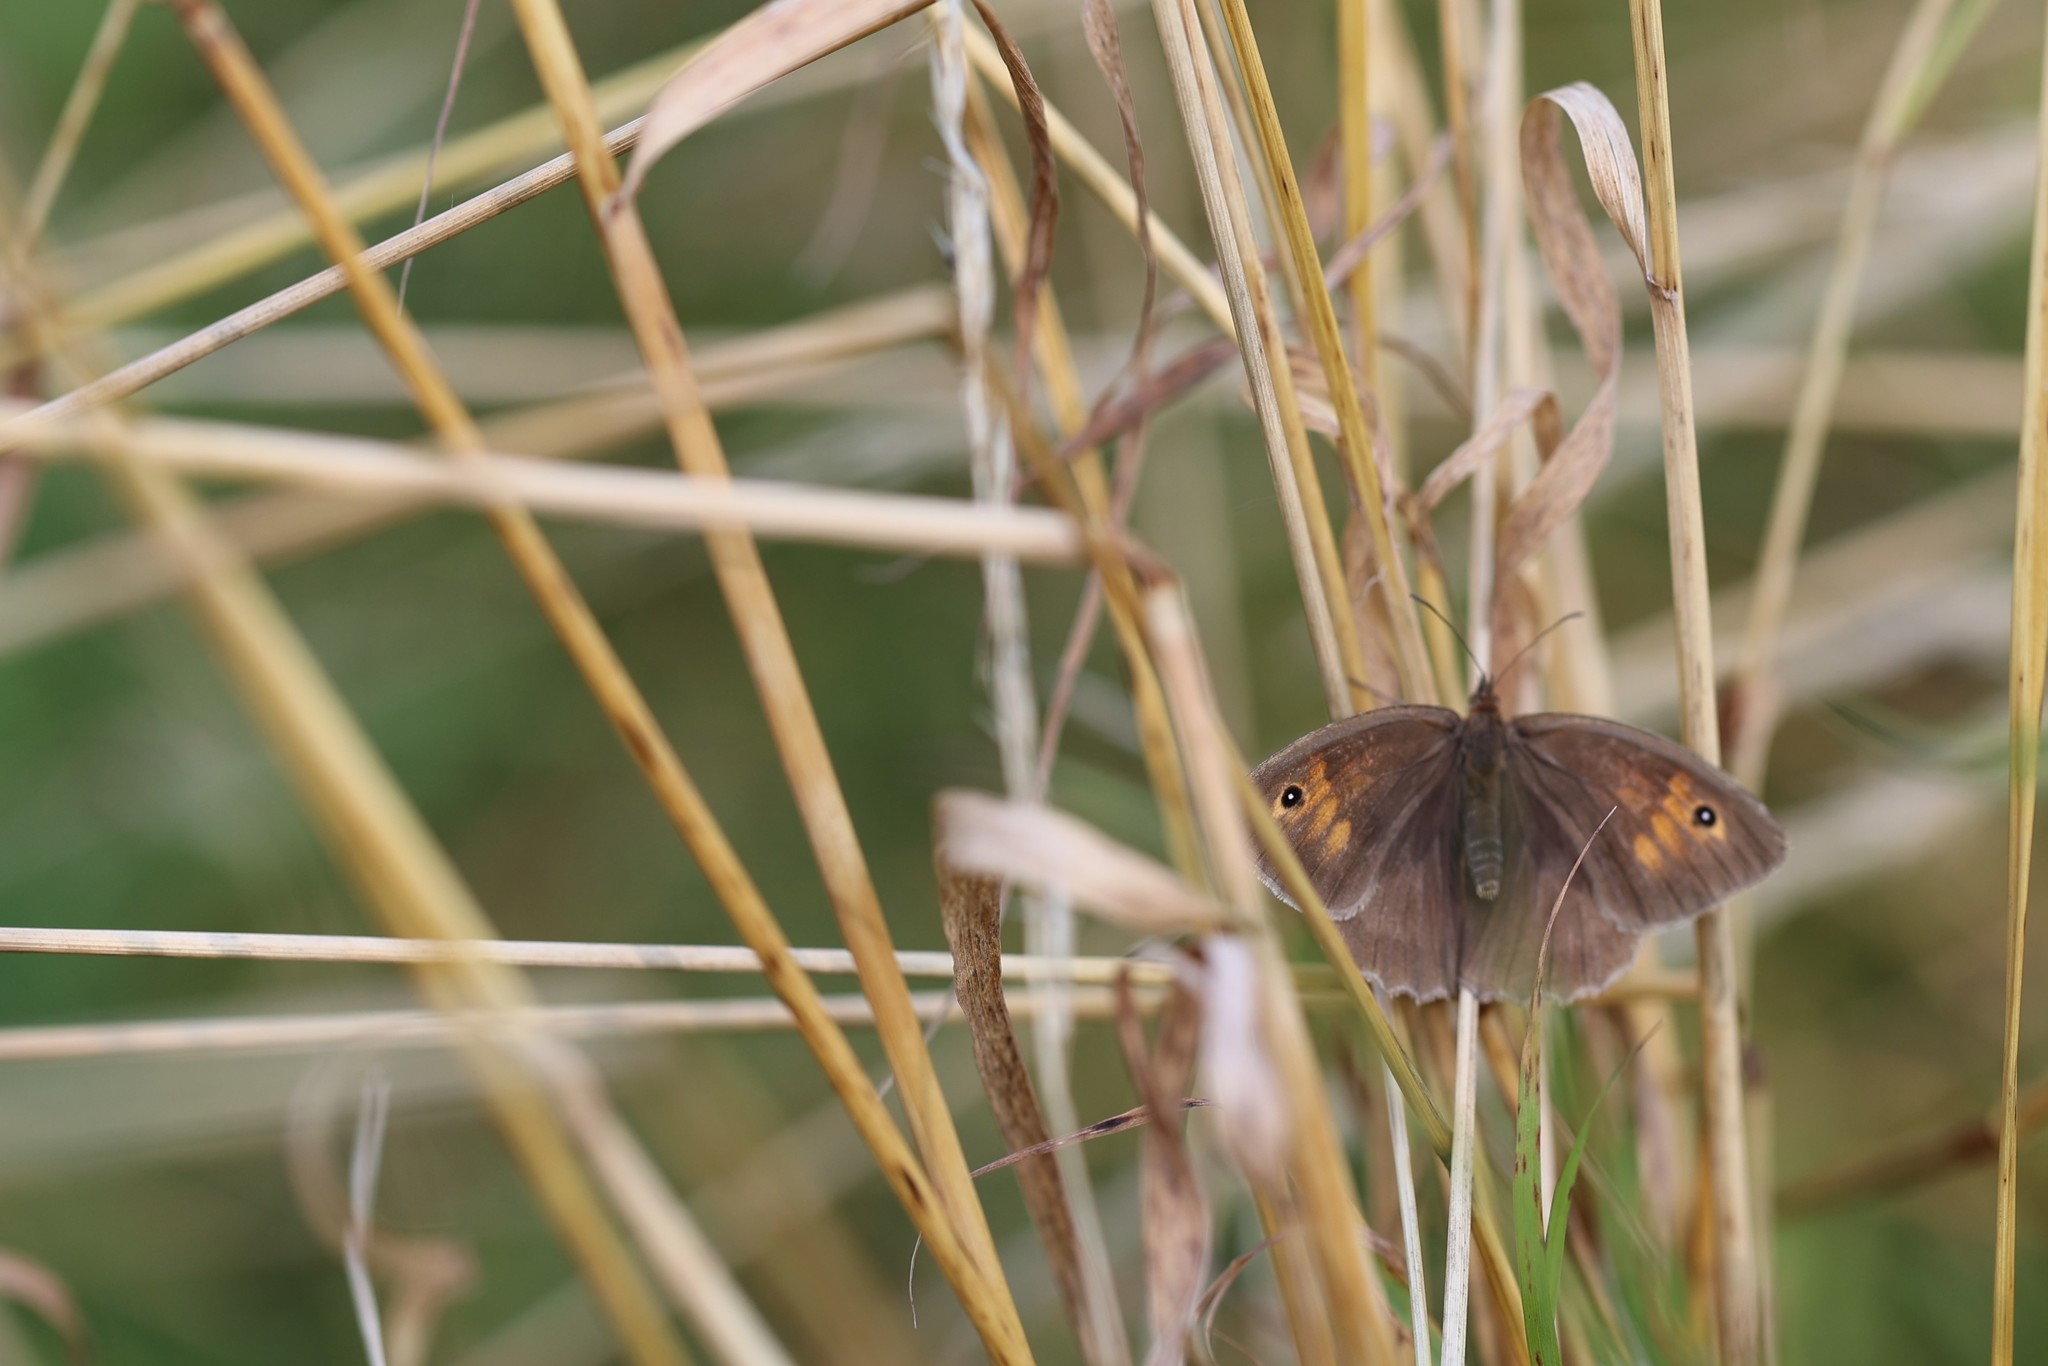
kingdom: Animalia
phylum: Arthropoda
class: Insecta
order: Lepidoptera
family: Nymphalidae
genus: Maniola
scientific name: Maniola jurtina
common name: Meadow brown
